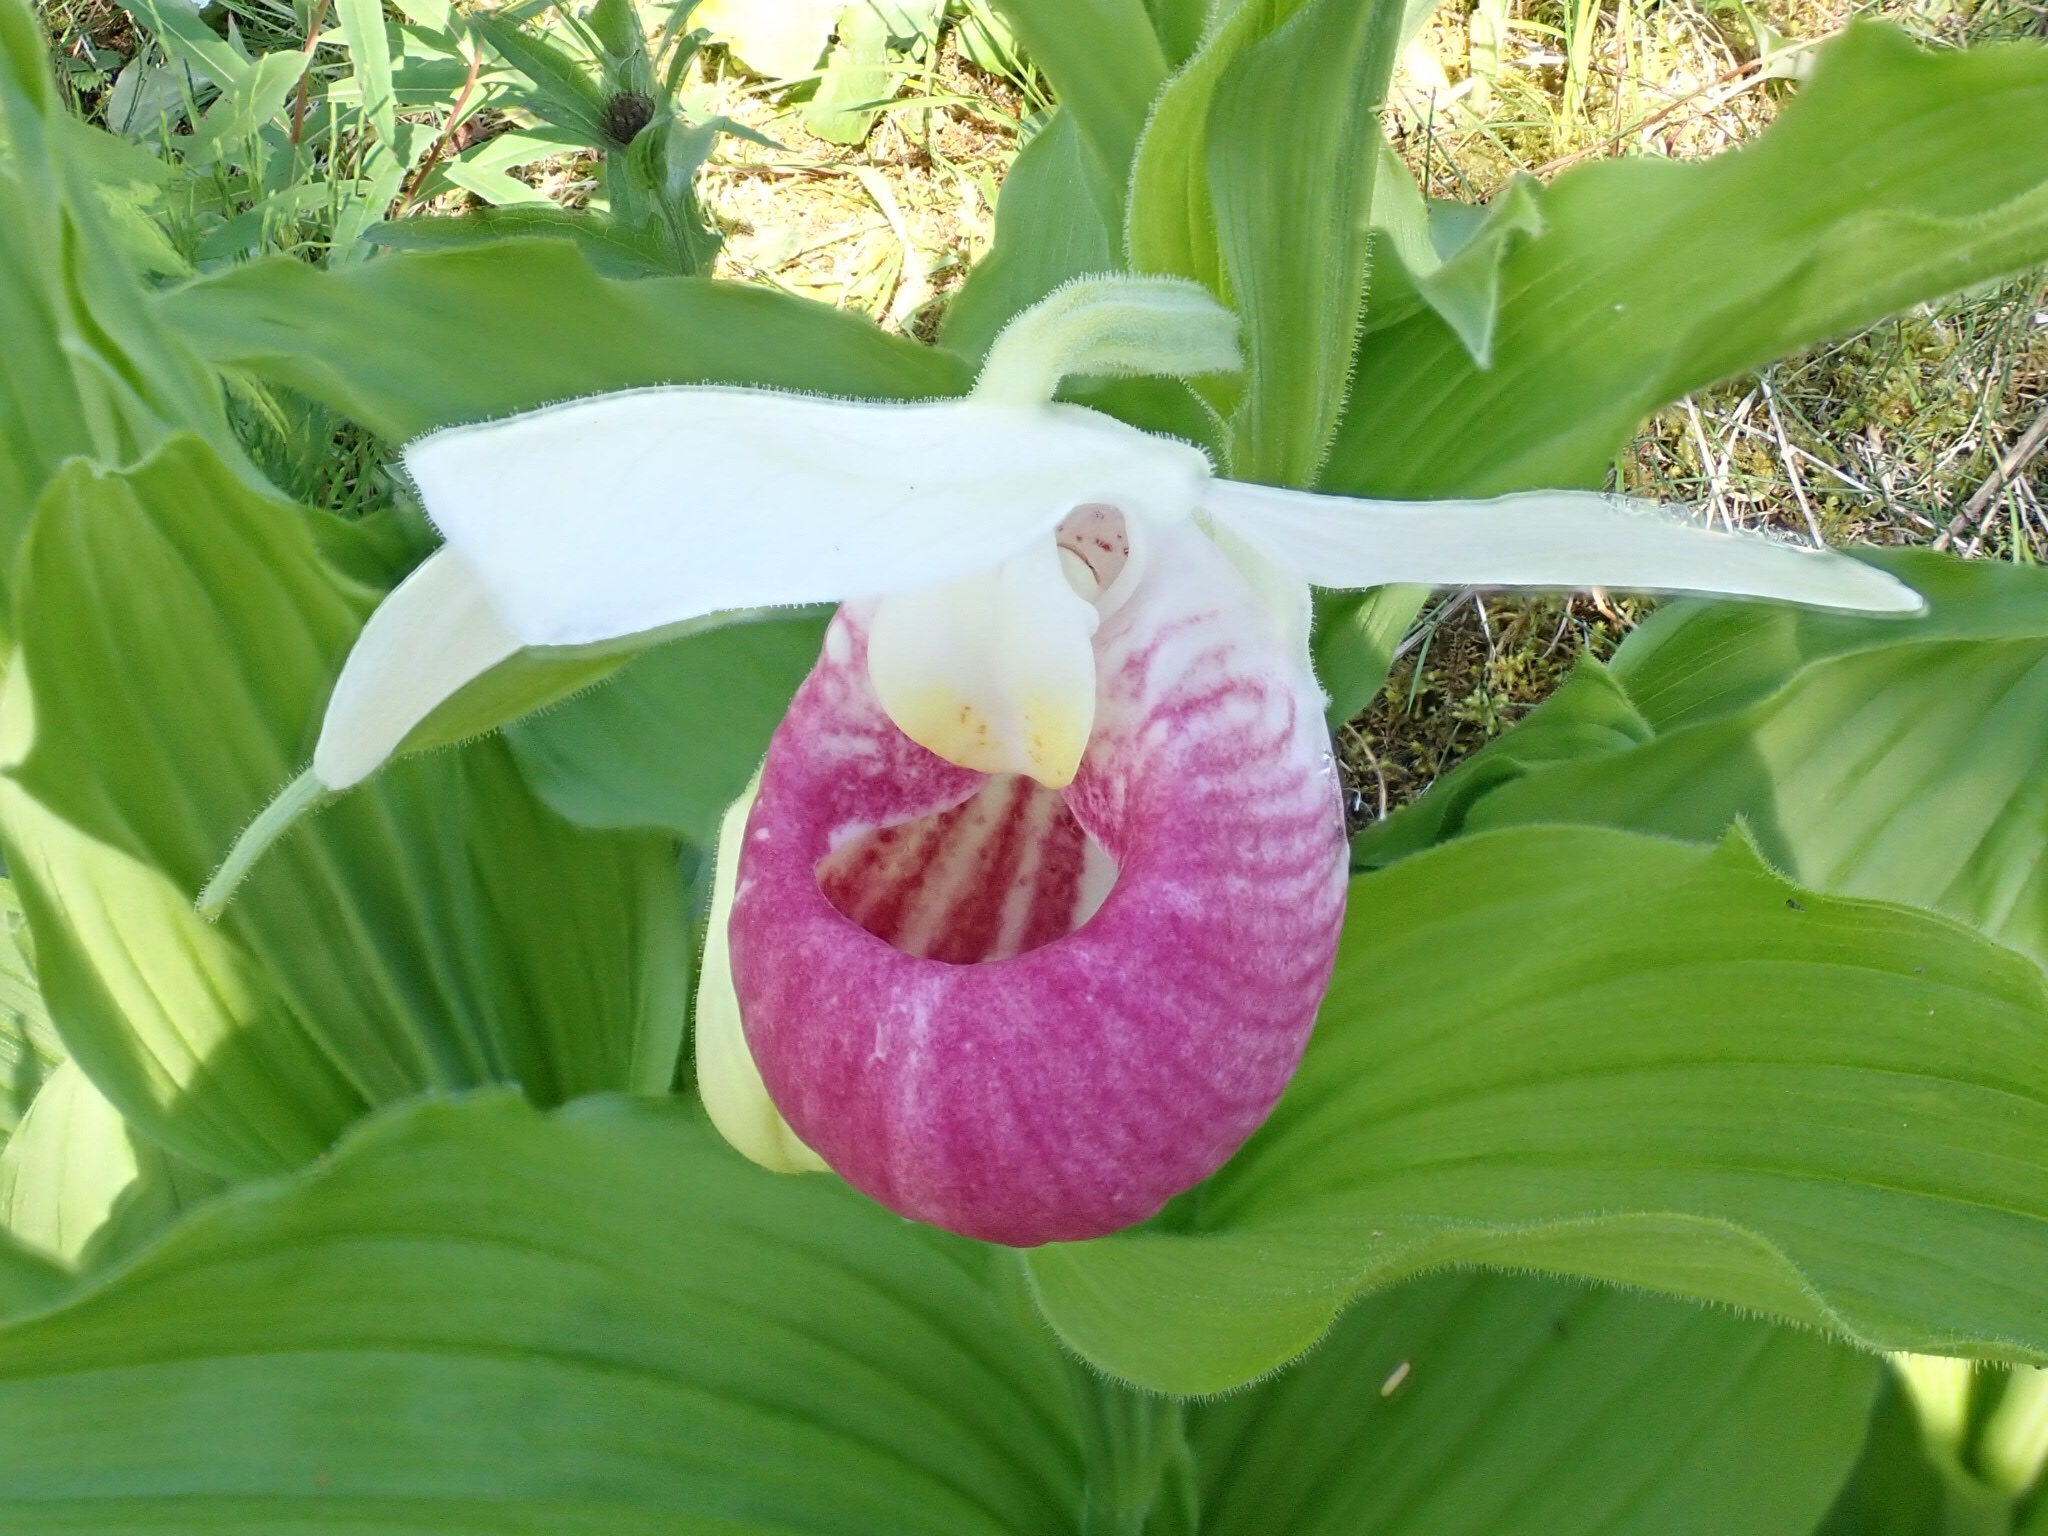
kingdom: Plantae
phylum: Tracheophyta
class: Liliopsida
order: Asparagales
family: Orchidaceae
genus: Cypripedium
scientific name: Cypripedium reginae
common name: Queen lady's-slipper
